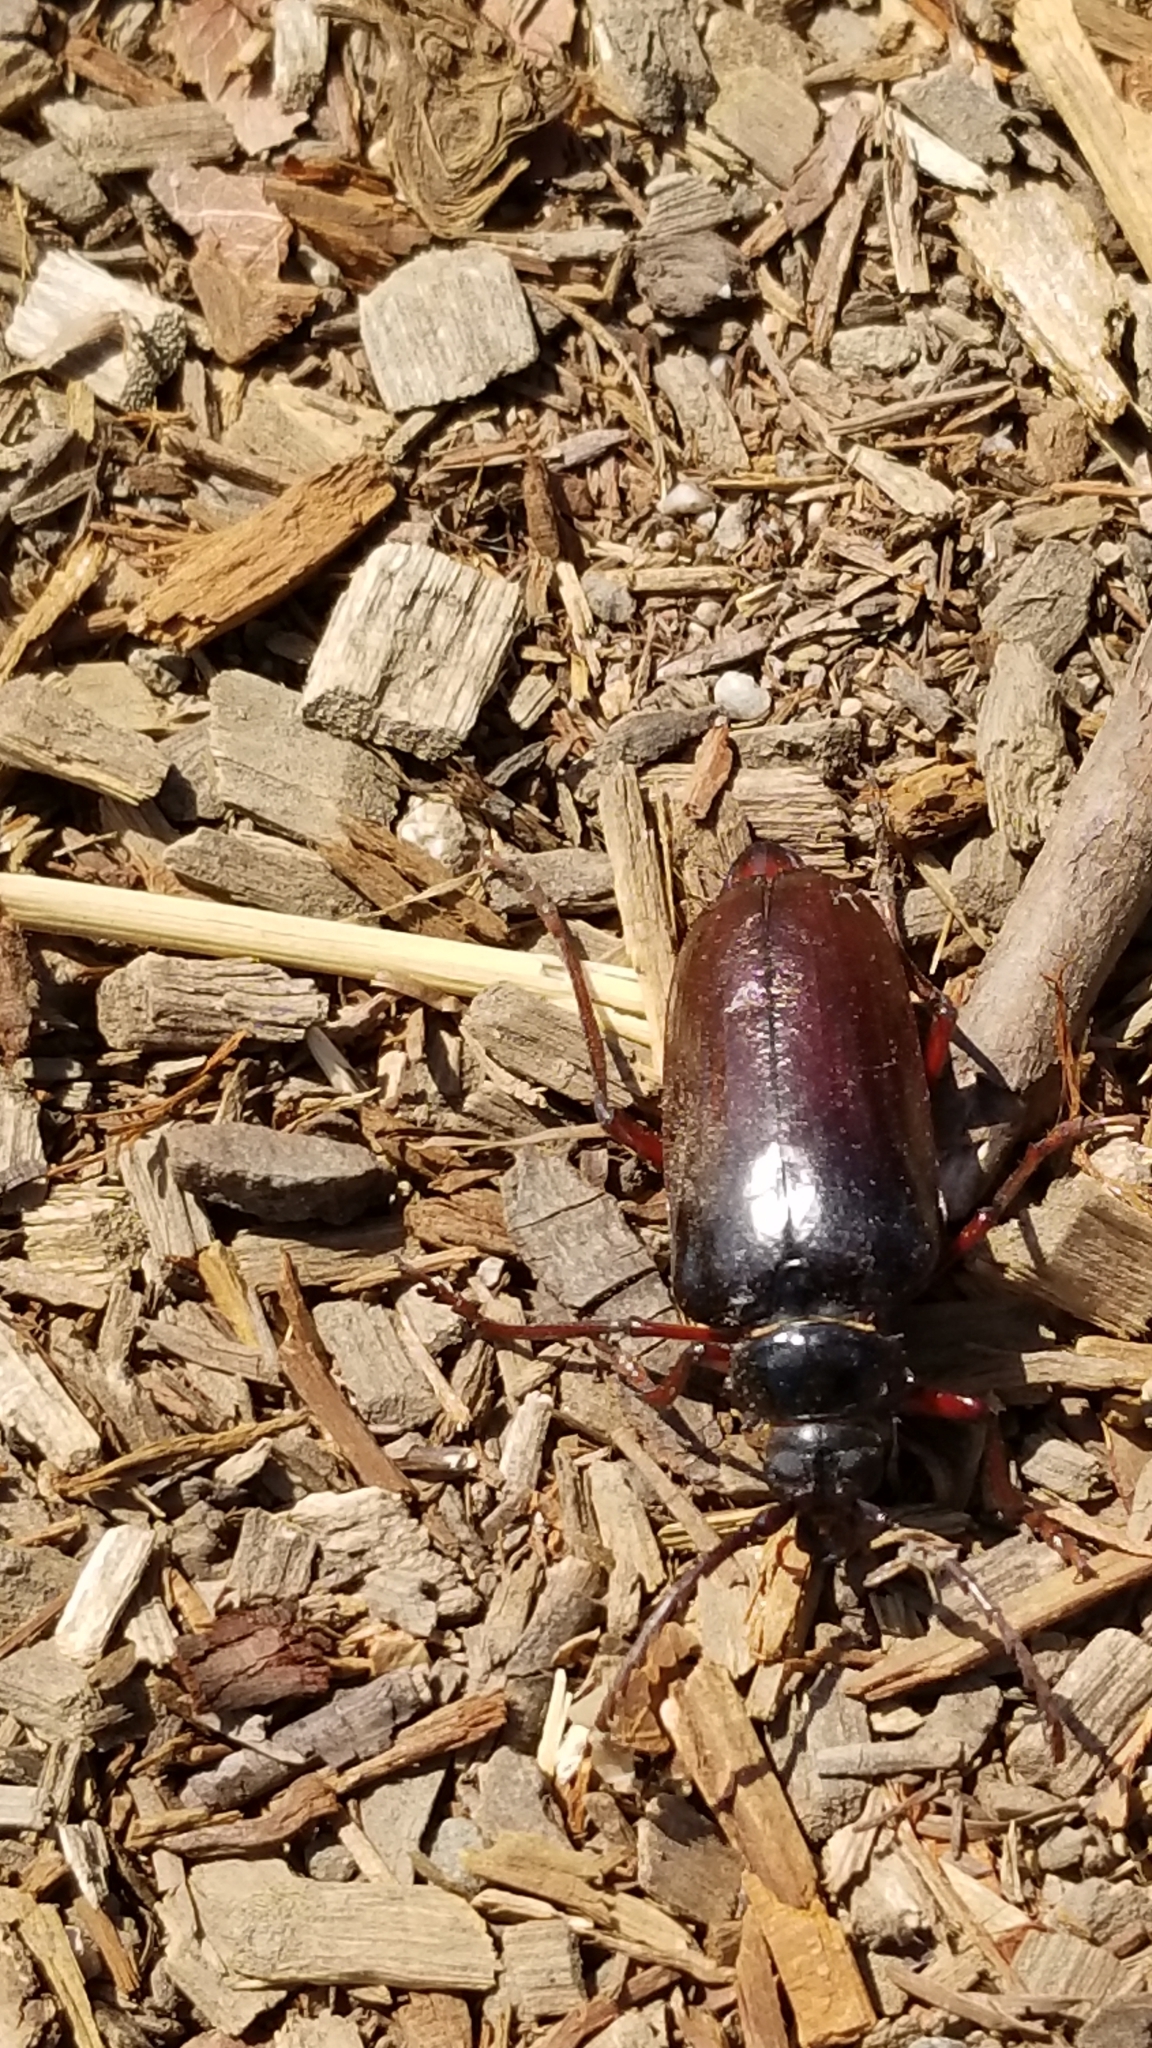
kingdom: Animalia
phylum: Arthropoda
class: Insecta
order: Coleoptera
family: Cerambycidae
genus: Prionus
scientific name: Prionus californicus
